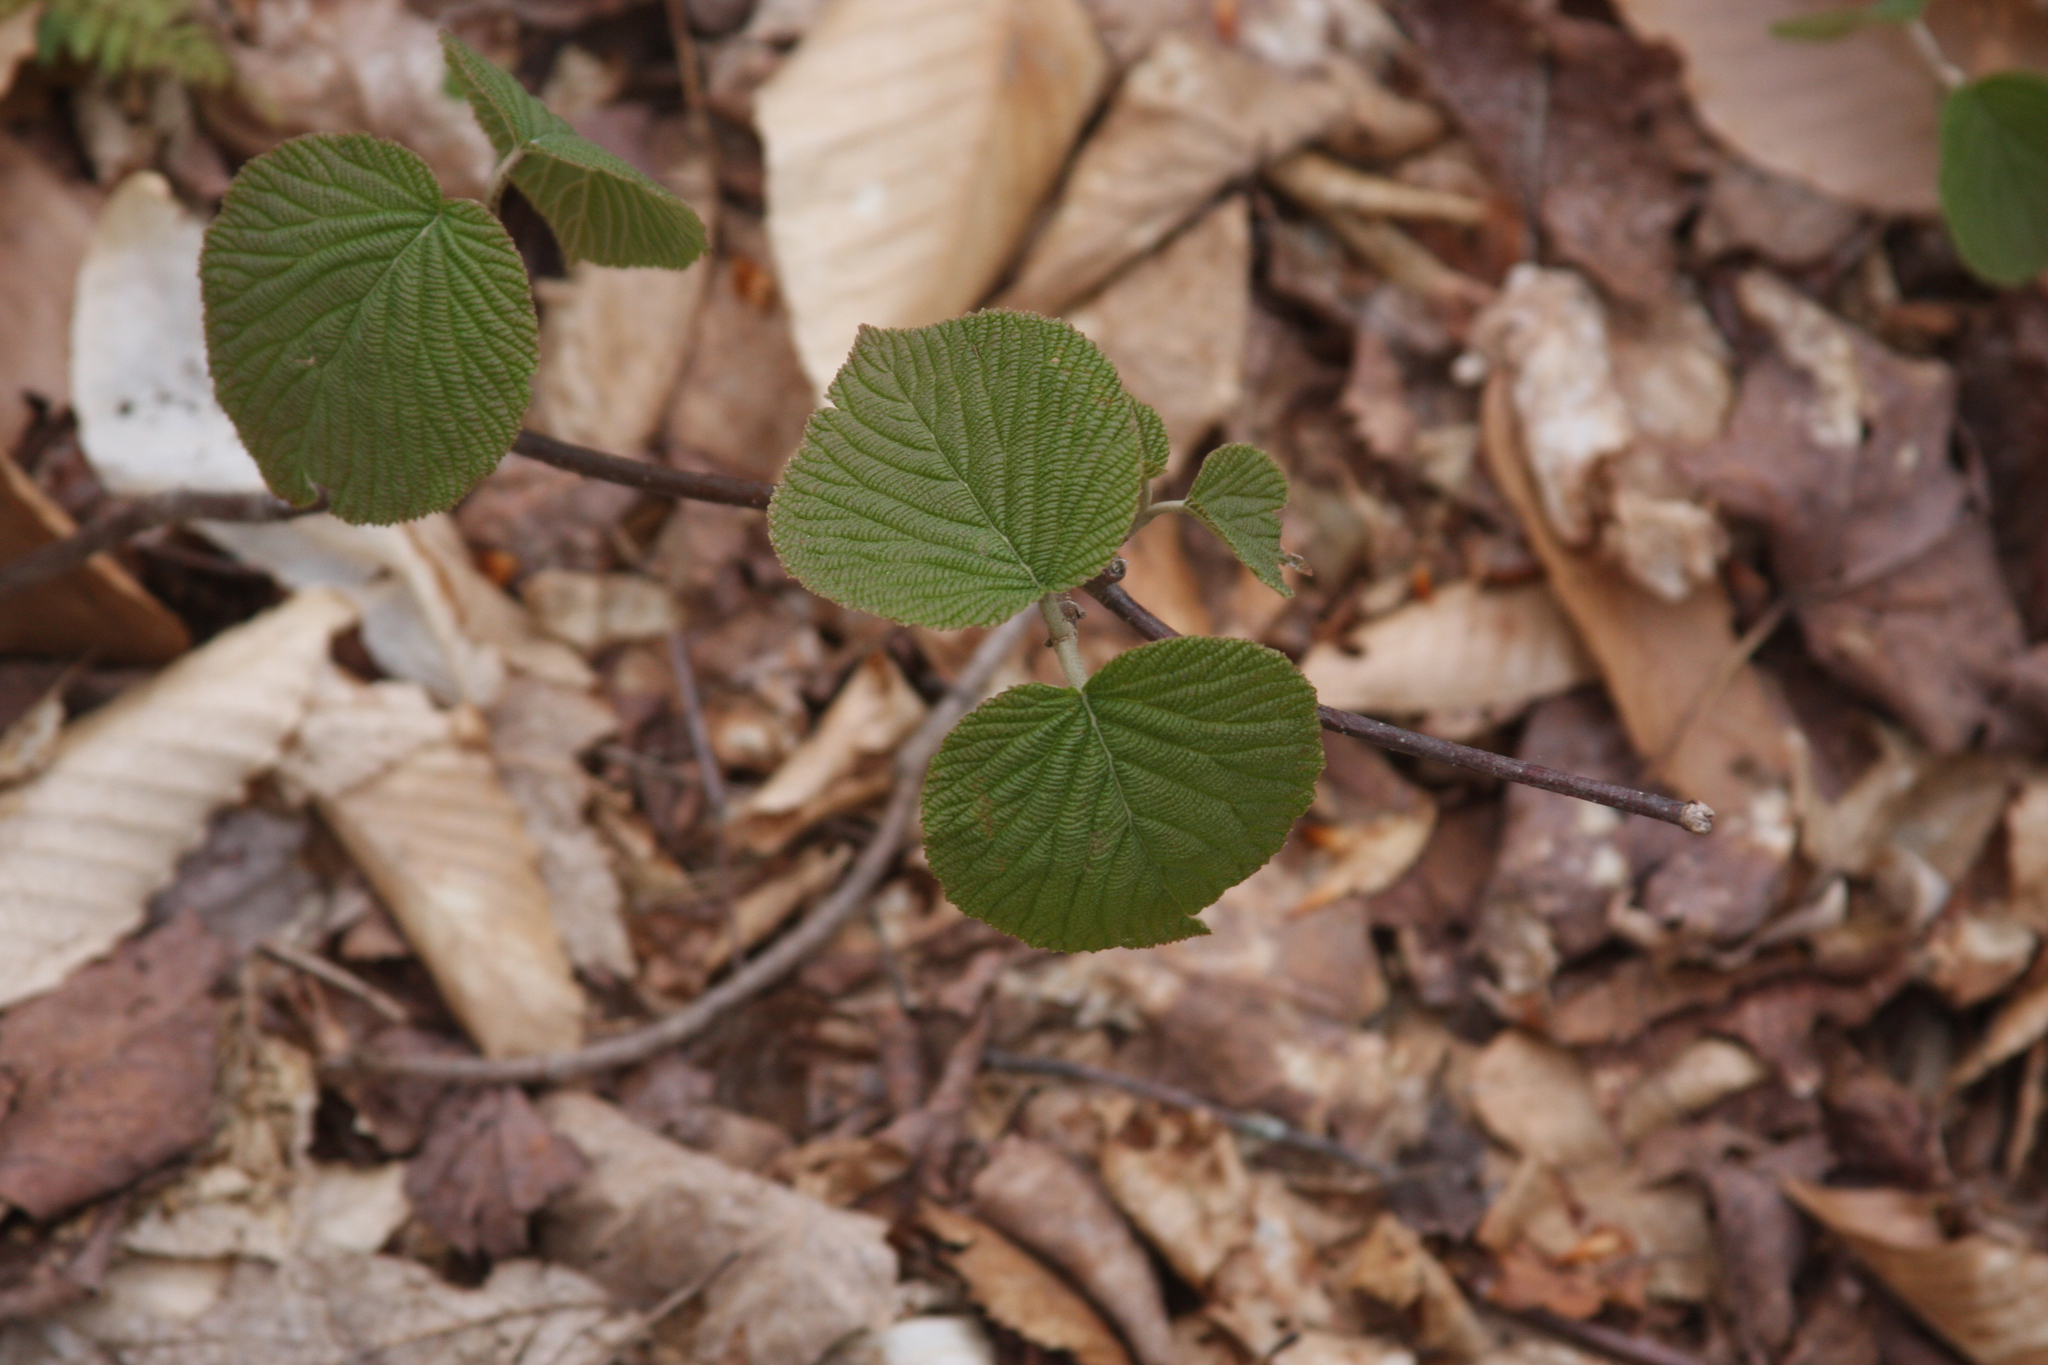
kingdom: Plantae
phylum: Tracheophyta
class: Magnoliopsida
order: Dipsacales
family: Viburnaceae
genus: Viburnum
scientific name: Viburnum lantanoides
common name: Hobblebush
